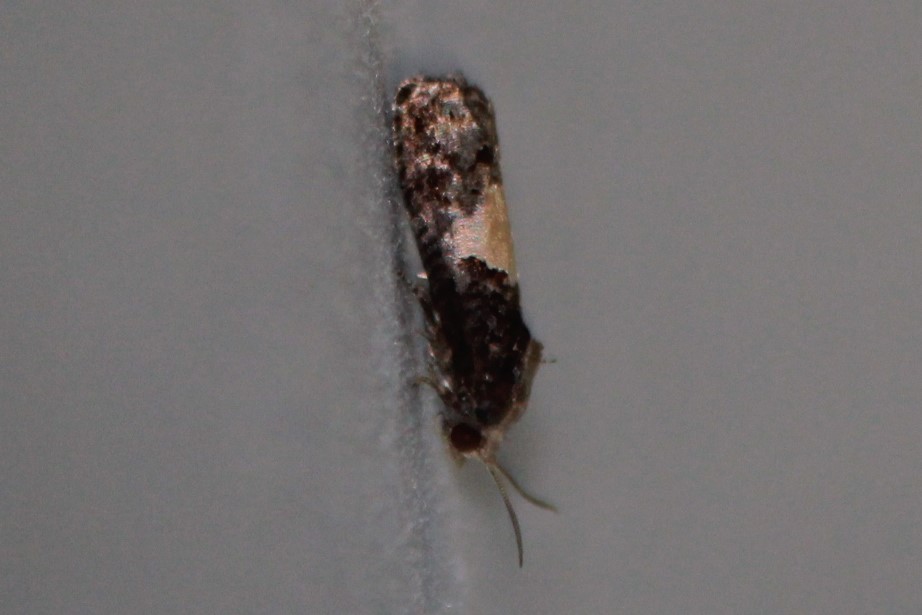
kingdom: Animalia
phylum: Arthropoda
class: Insecta
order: Lepidoptera
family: Tortricidae
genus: Epiblema
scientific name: Epiblema glenni
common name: Glenn's epiblema
